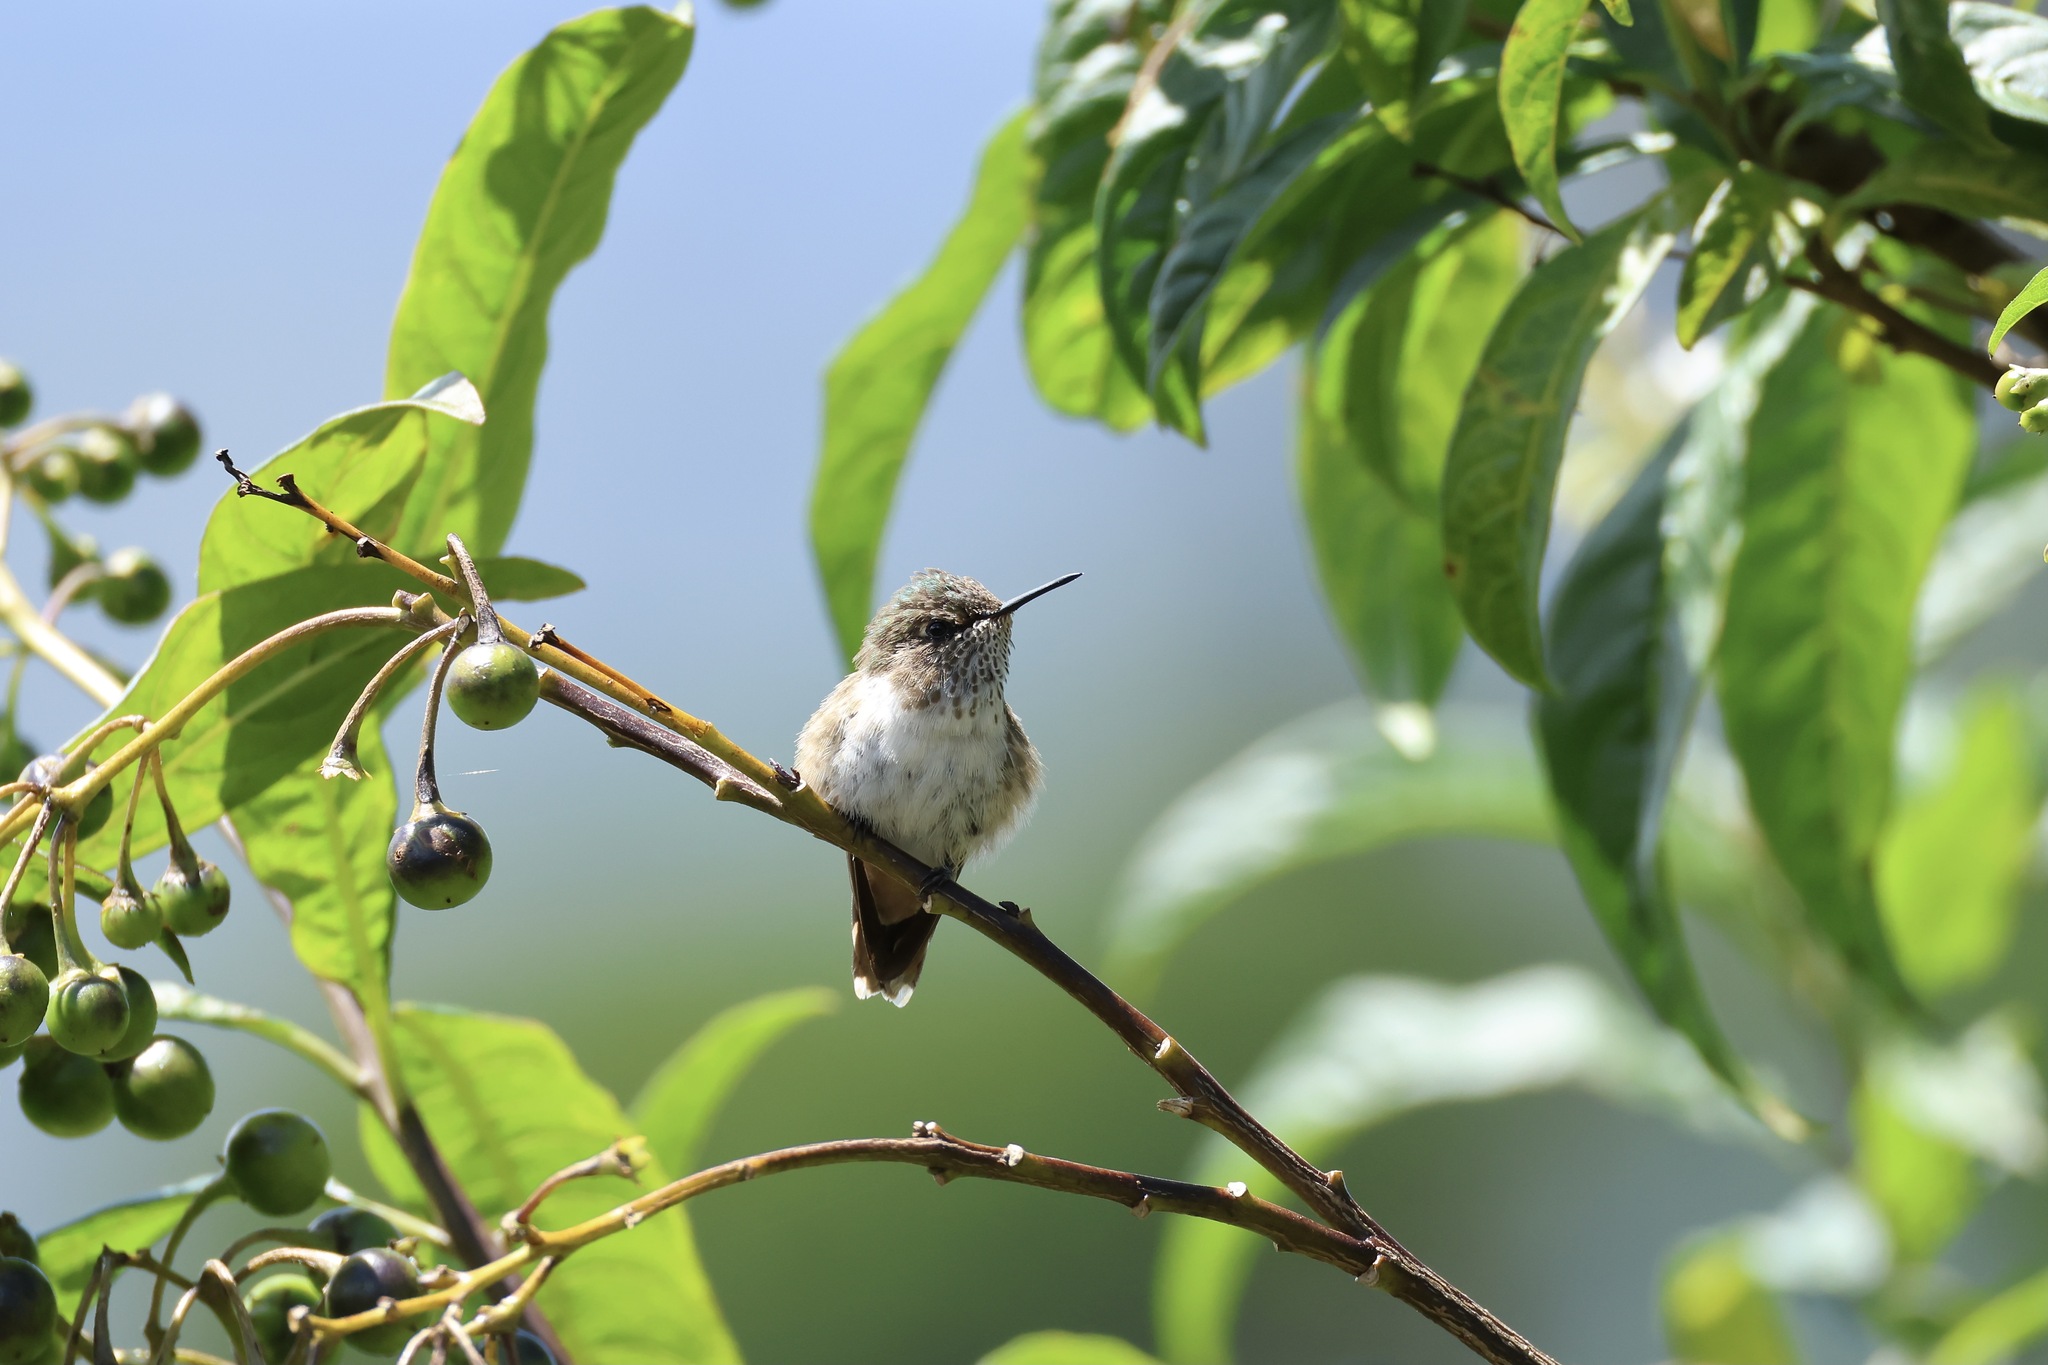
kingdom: Animalia
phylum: Chordata
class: Aves
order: Apodiformes
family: Trochilidae
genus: Selasphorus
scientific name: Selasphorus flammula
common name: Volcano hummingbird
